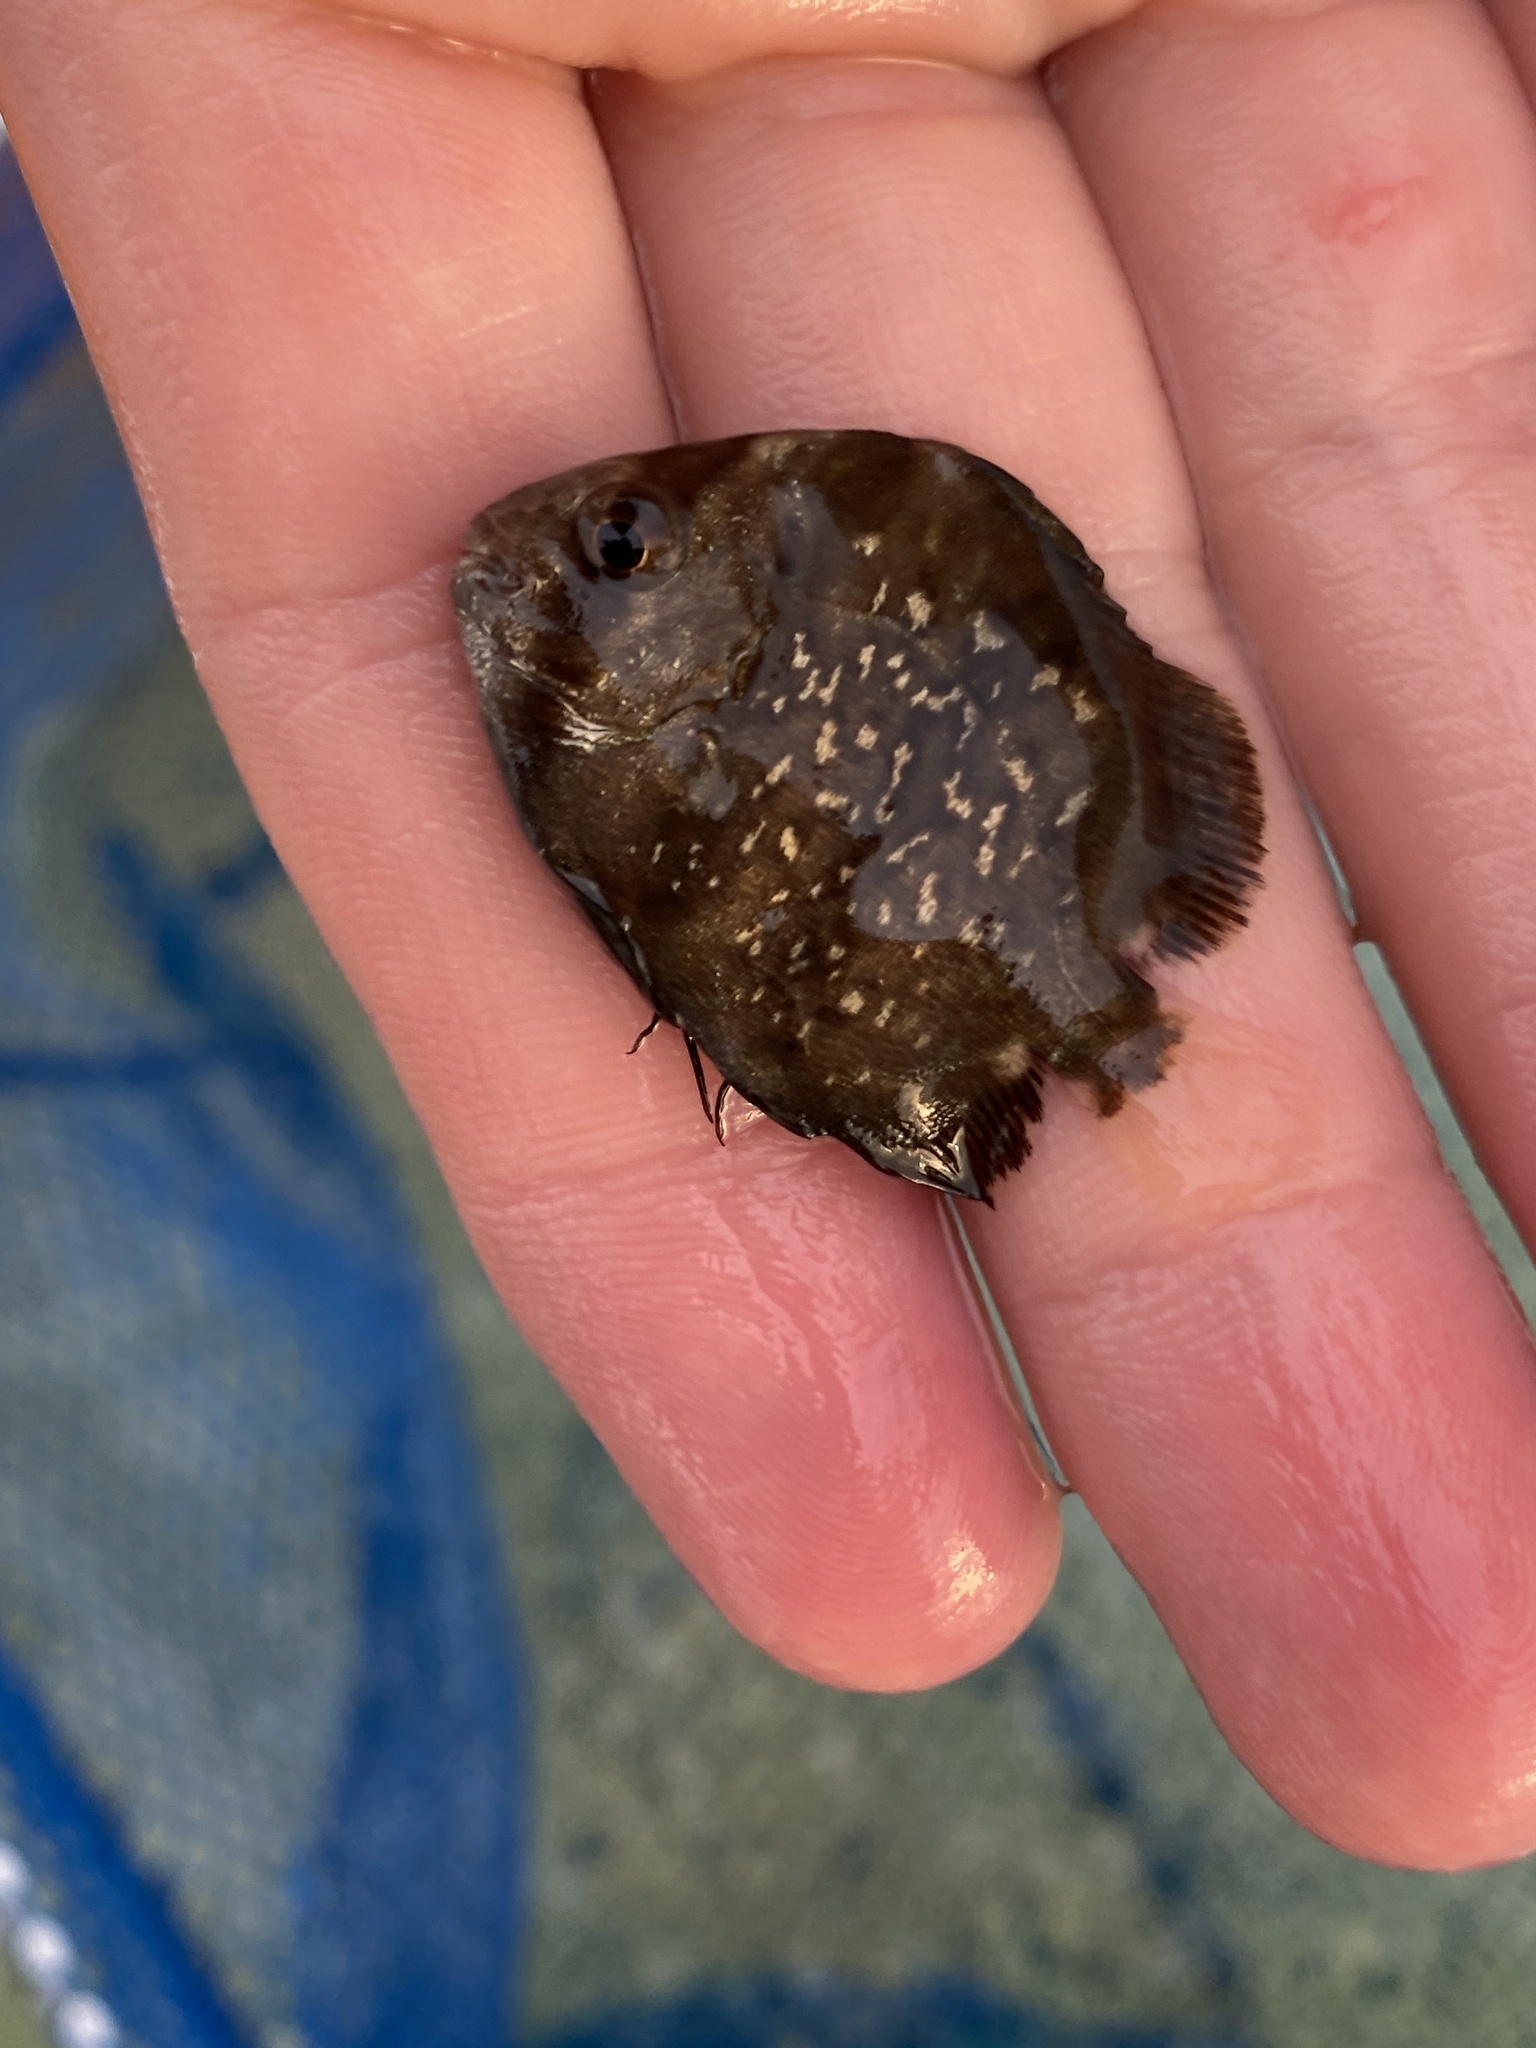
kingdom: Animalia
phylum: Chordata
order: Perciformes
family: Ephippidae
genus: Chaetodipterus
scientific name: Chaetodipterus faber
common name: Ocean cobbler
